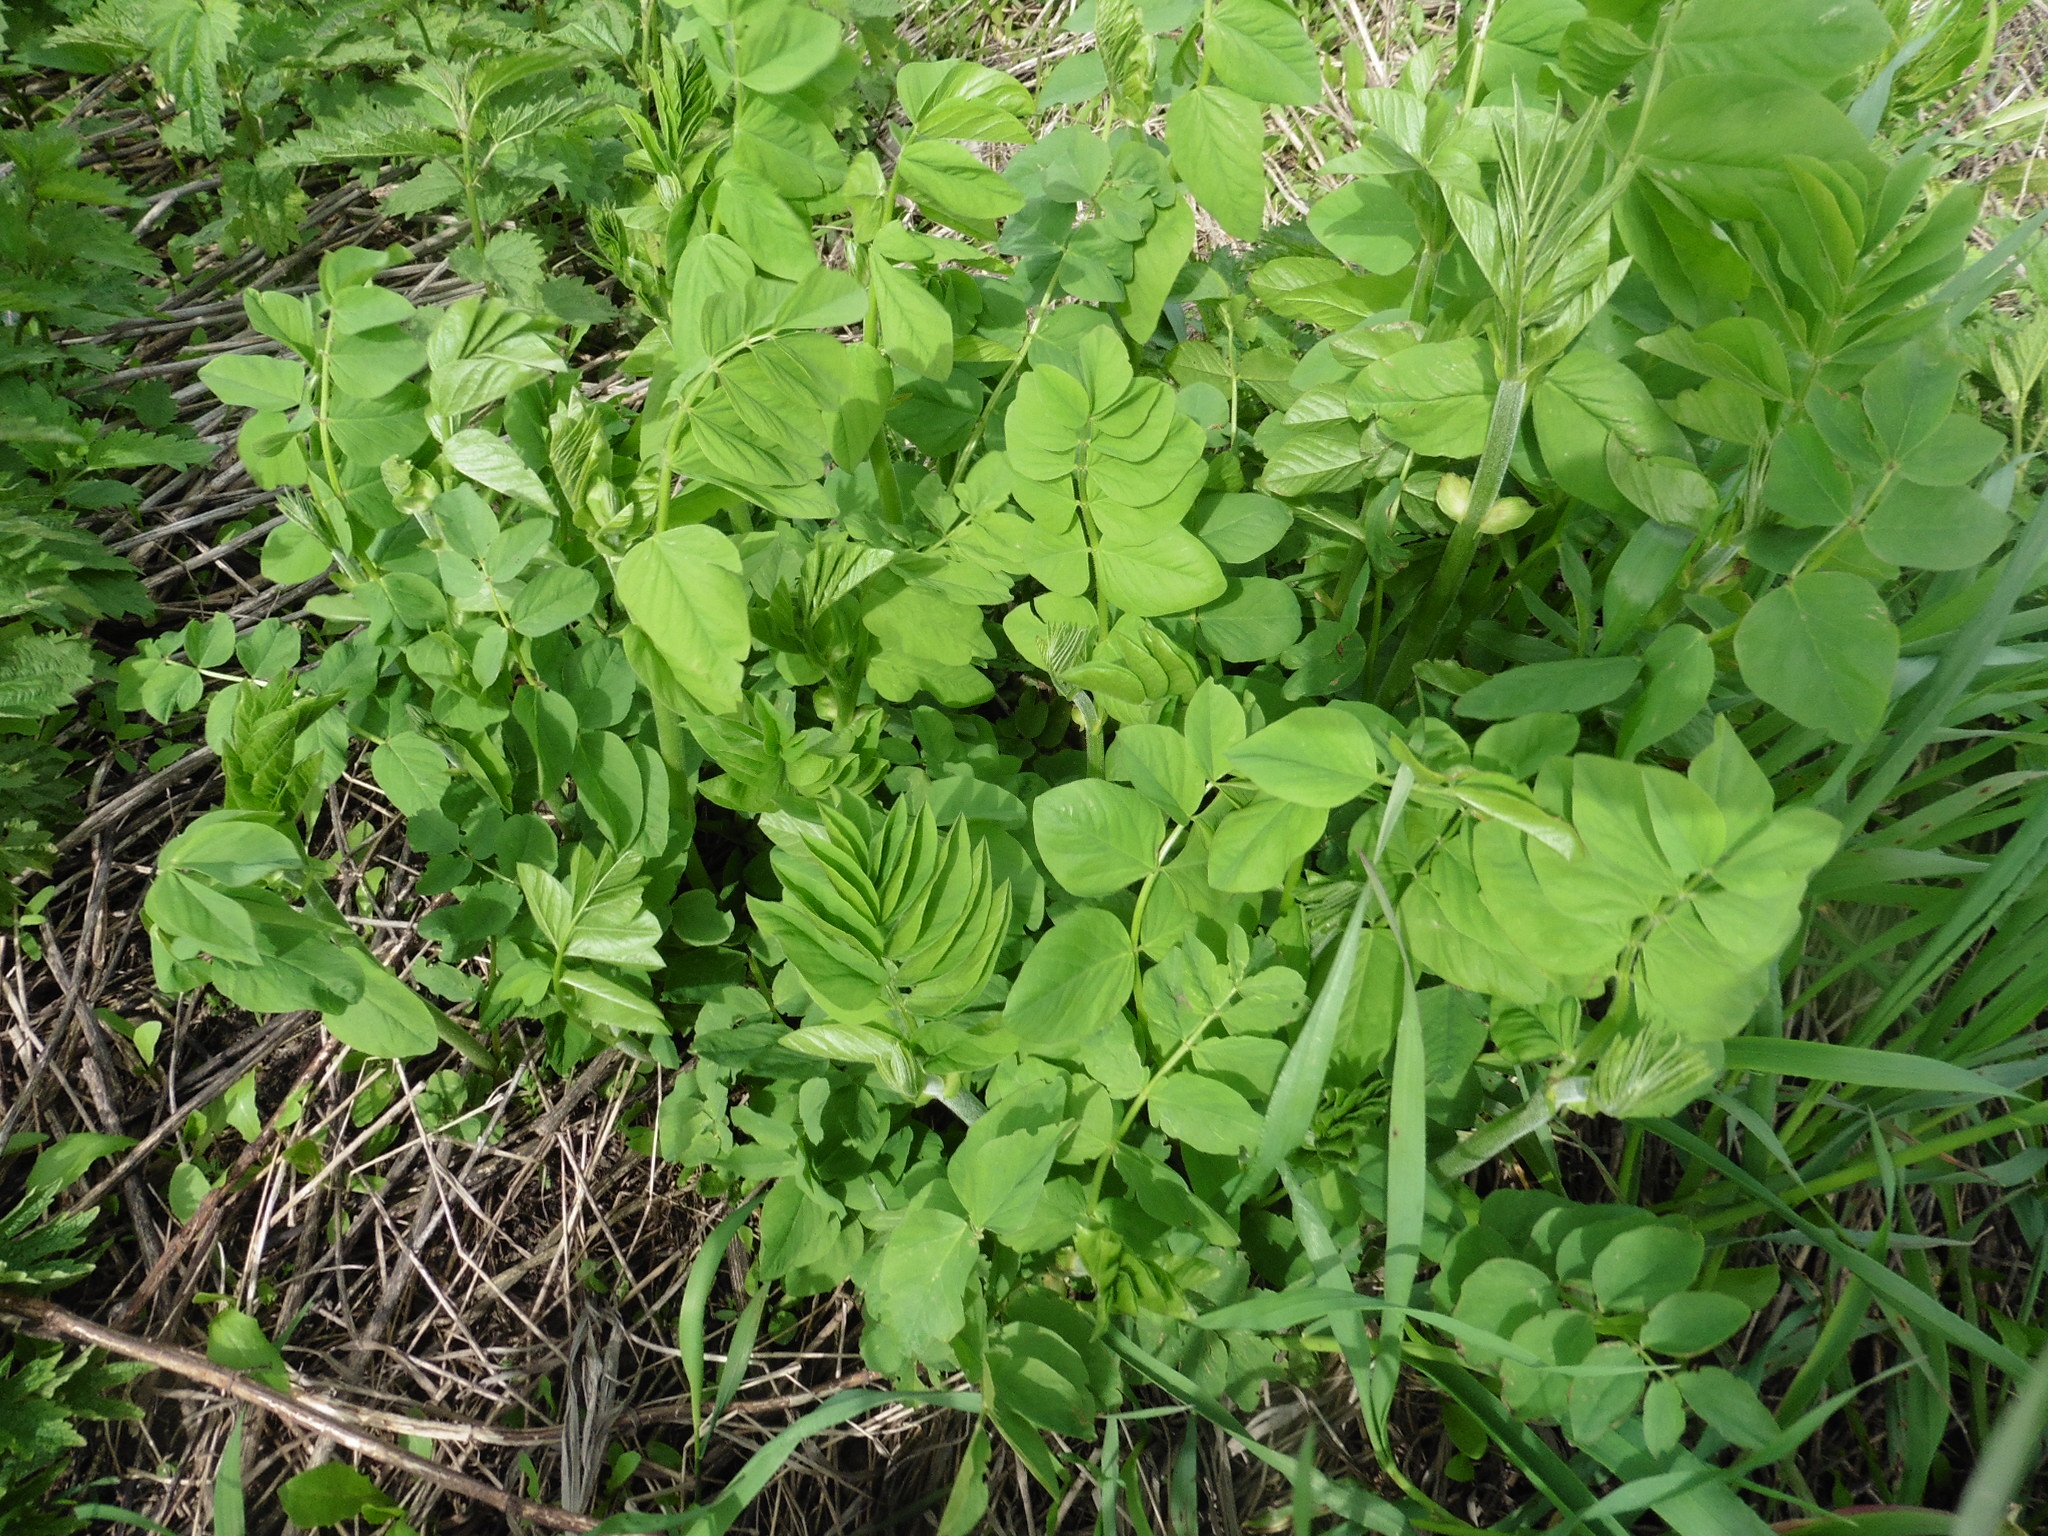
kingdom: Plantae
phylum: Tracheophyta
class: Magnoliopsida
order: Fabales
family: Fabaceae
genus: Galega
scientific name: Galega orientalis
